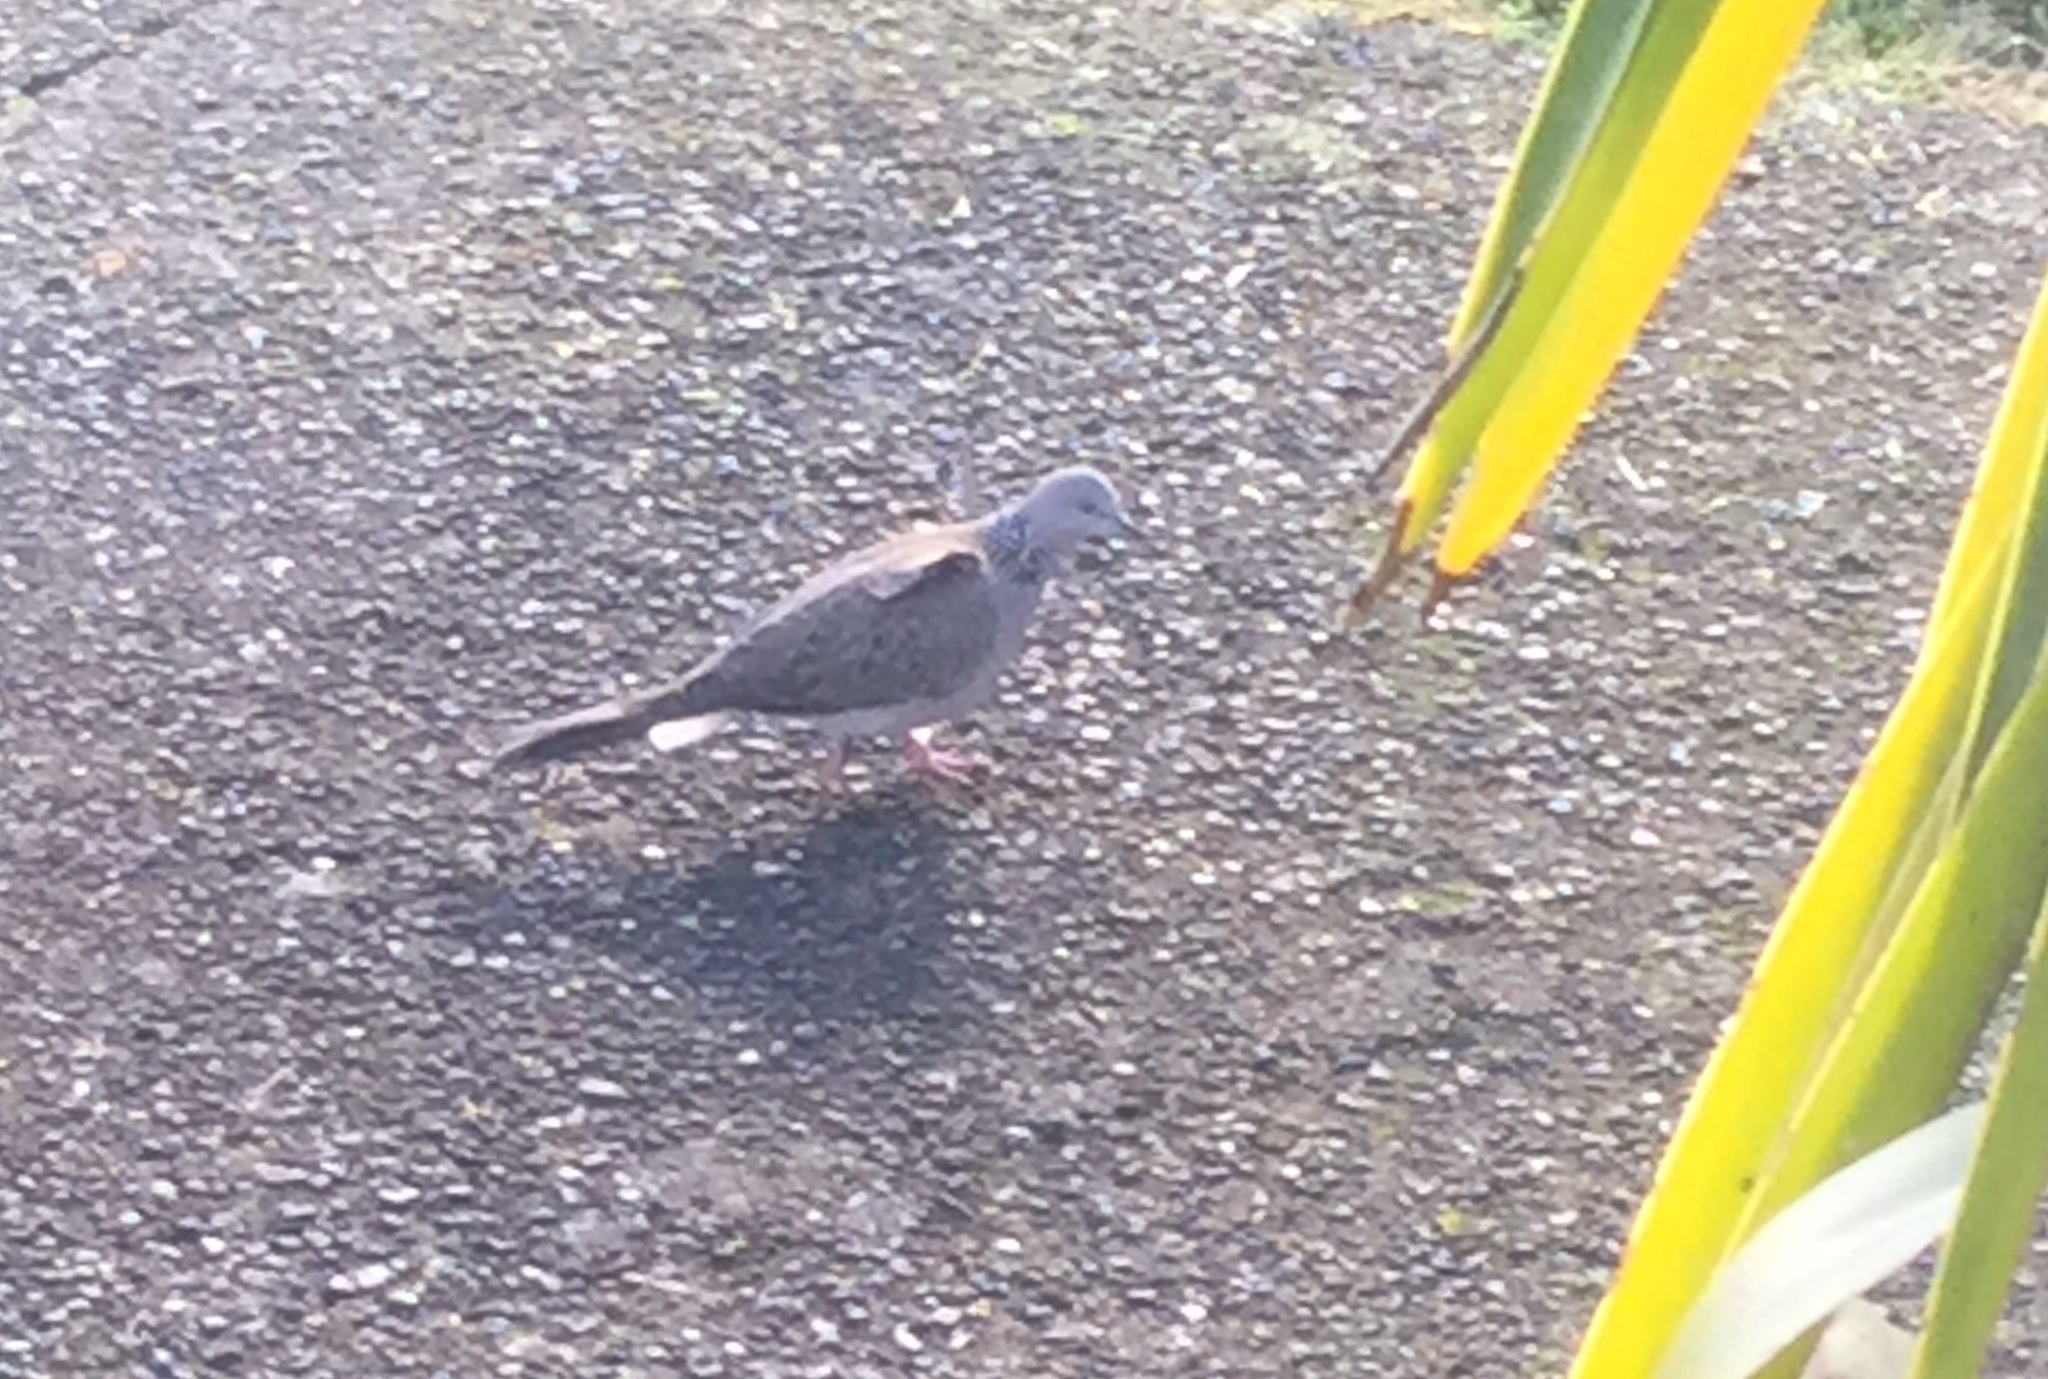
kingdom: Animalia
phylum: Chordata
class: Aves
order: Columbiformes
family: Columbidae
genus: Spilopelia
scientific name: Spilopelia chinensis
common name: Spotted dove
